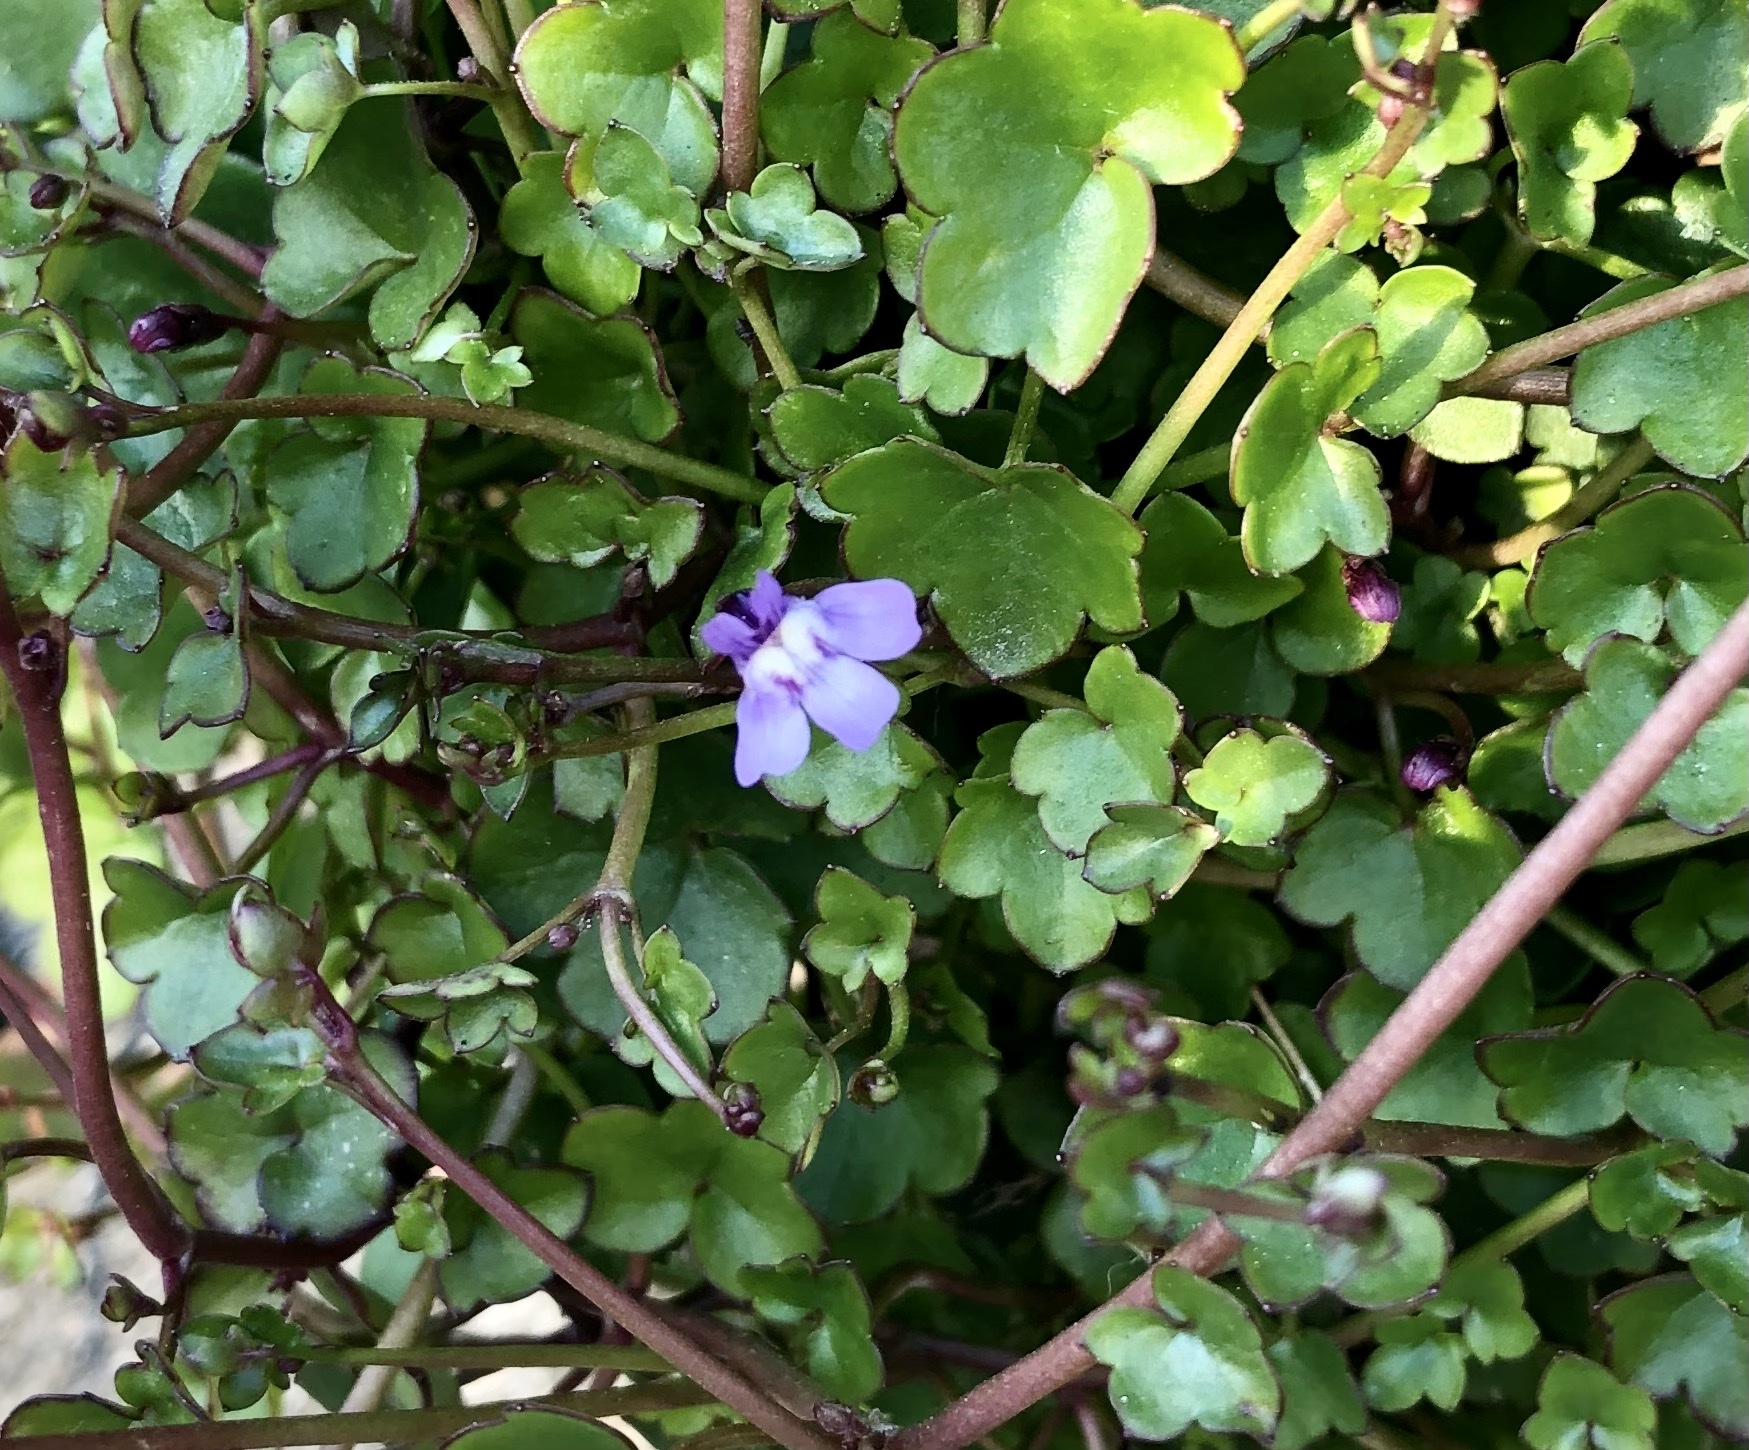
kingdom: Plantae
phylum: Tracheophyta
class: Magnoliopsida
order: Lamiales
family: Plantaginaceae
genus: Cymbalaria
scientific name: Cymbalaria muralis
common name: Ivy-leaved toadflax
